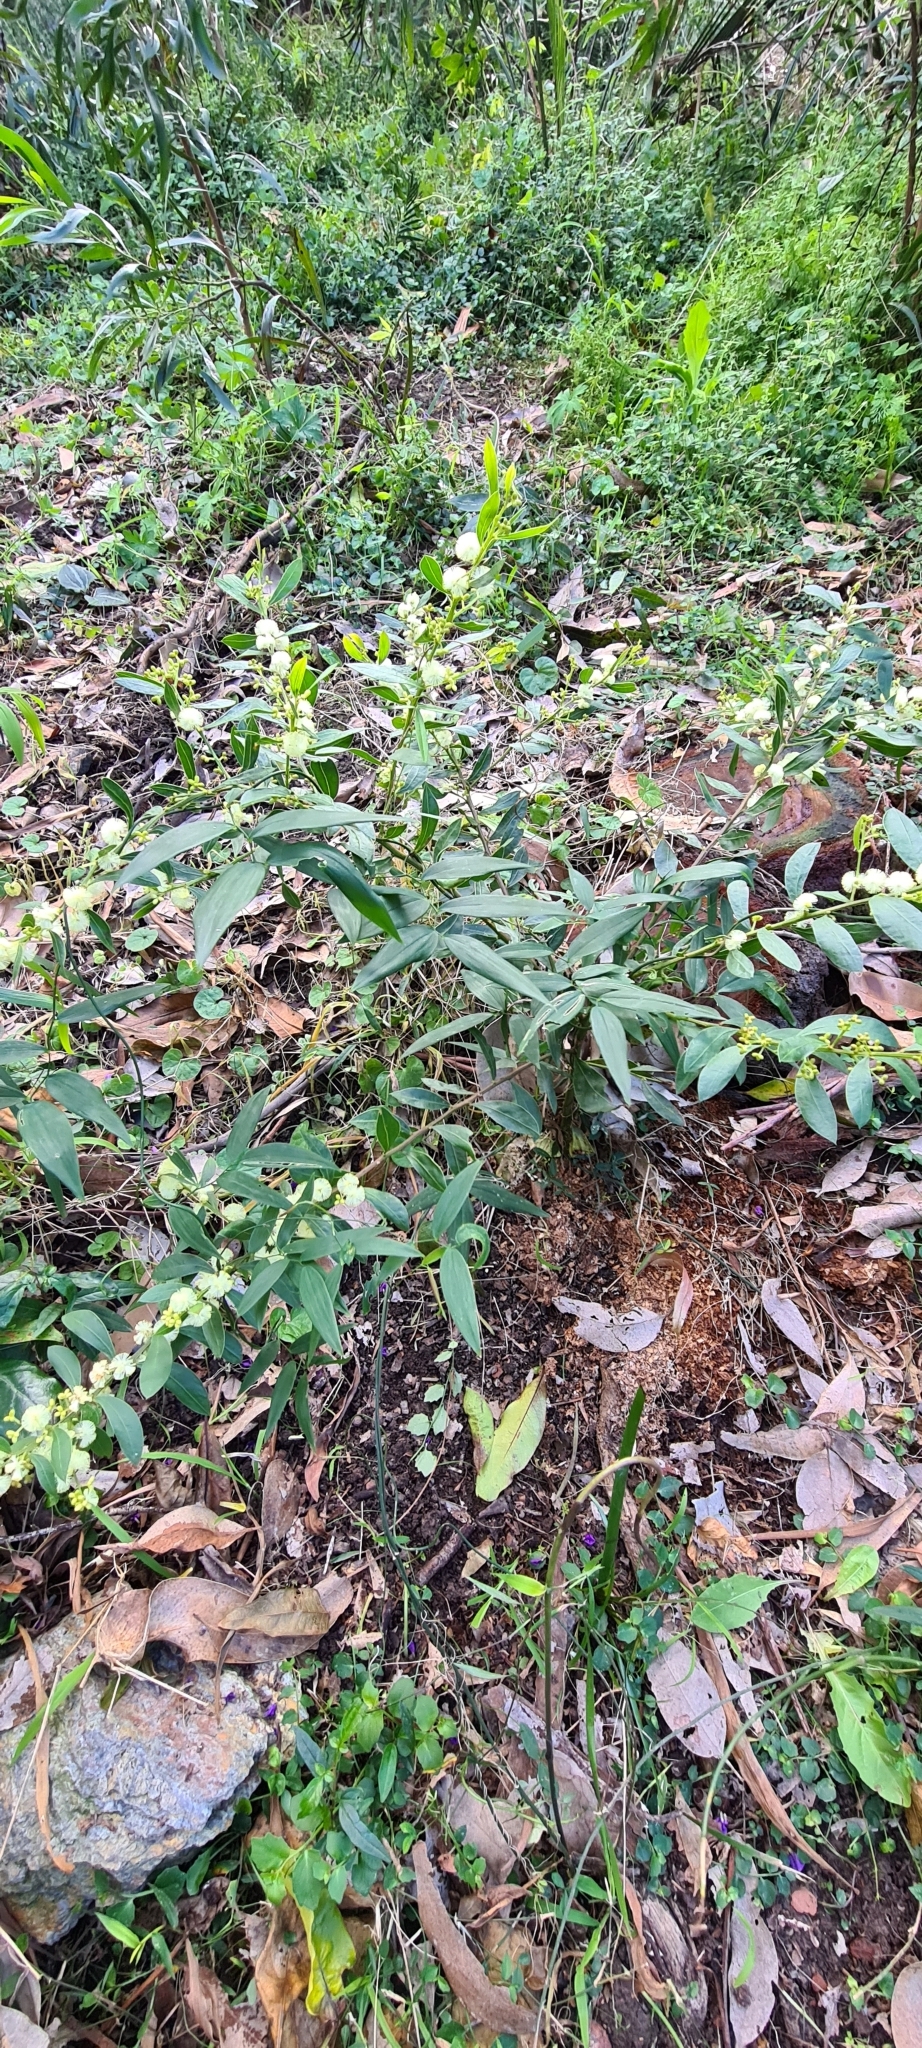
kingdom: Plantae
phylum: Tracheophyta
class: Magnoliopsida
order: Fabales
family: Fabaceae
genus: Acacia
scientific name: Acacia myrtifolia
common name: Myrtle wattle
